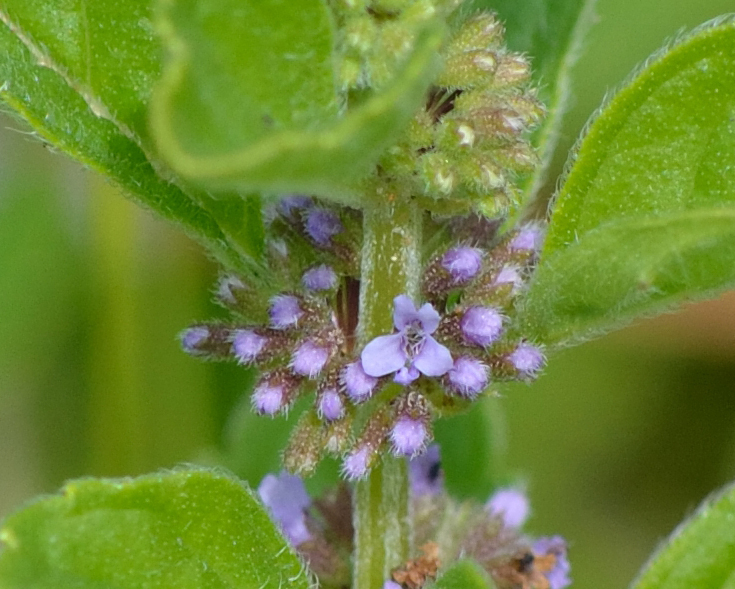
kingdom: Plantae
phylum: Tracheophyta
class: Magnoliopsida
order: Lamiales
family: Lamiaceae
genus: Mentha
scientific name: Mentha arvensis
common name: Corn mint
